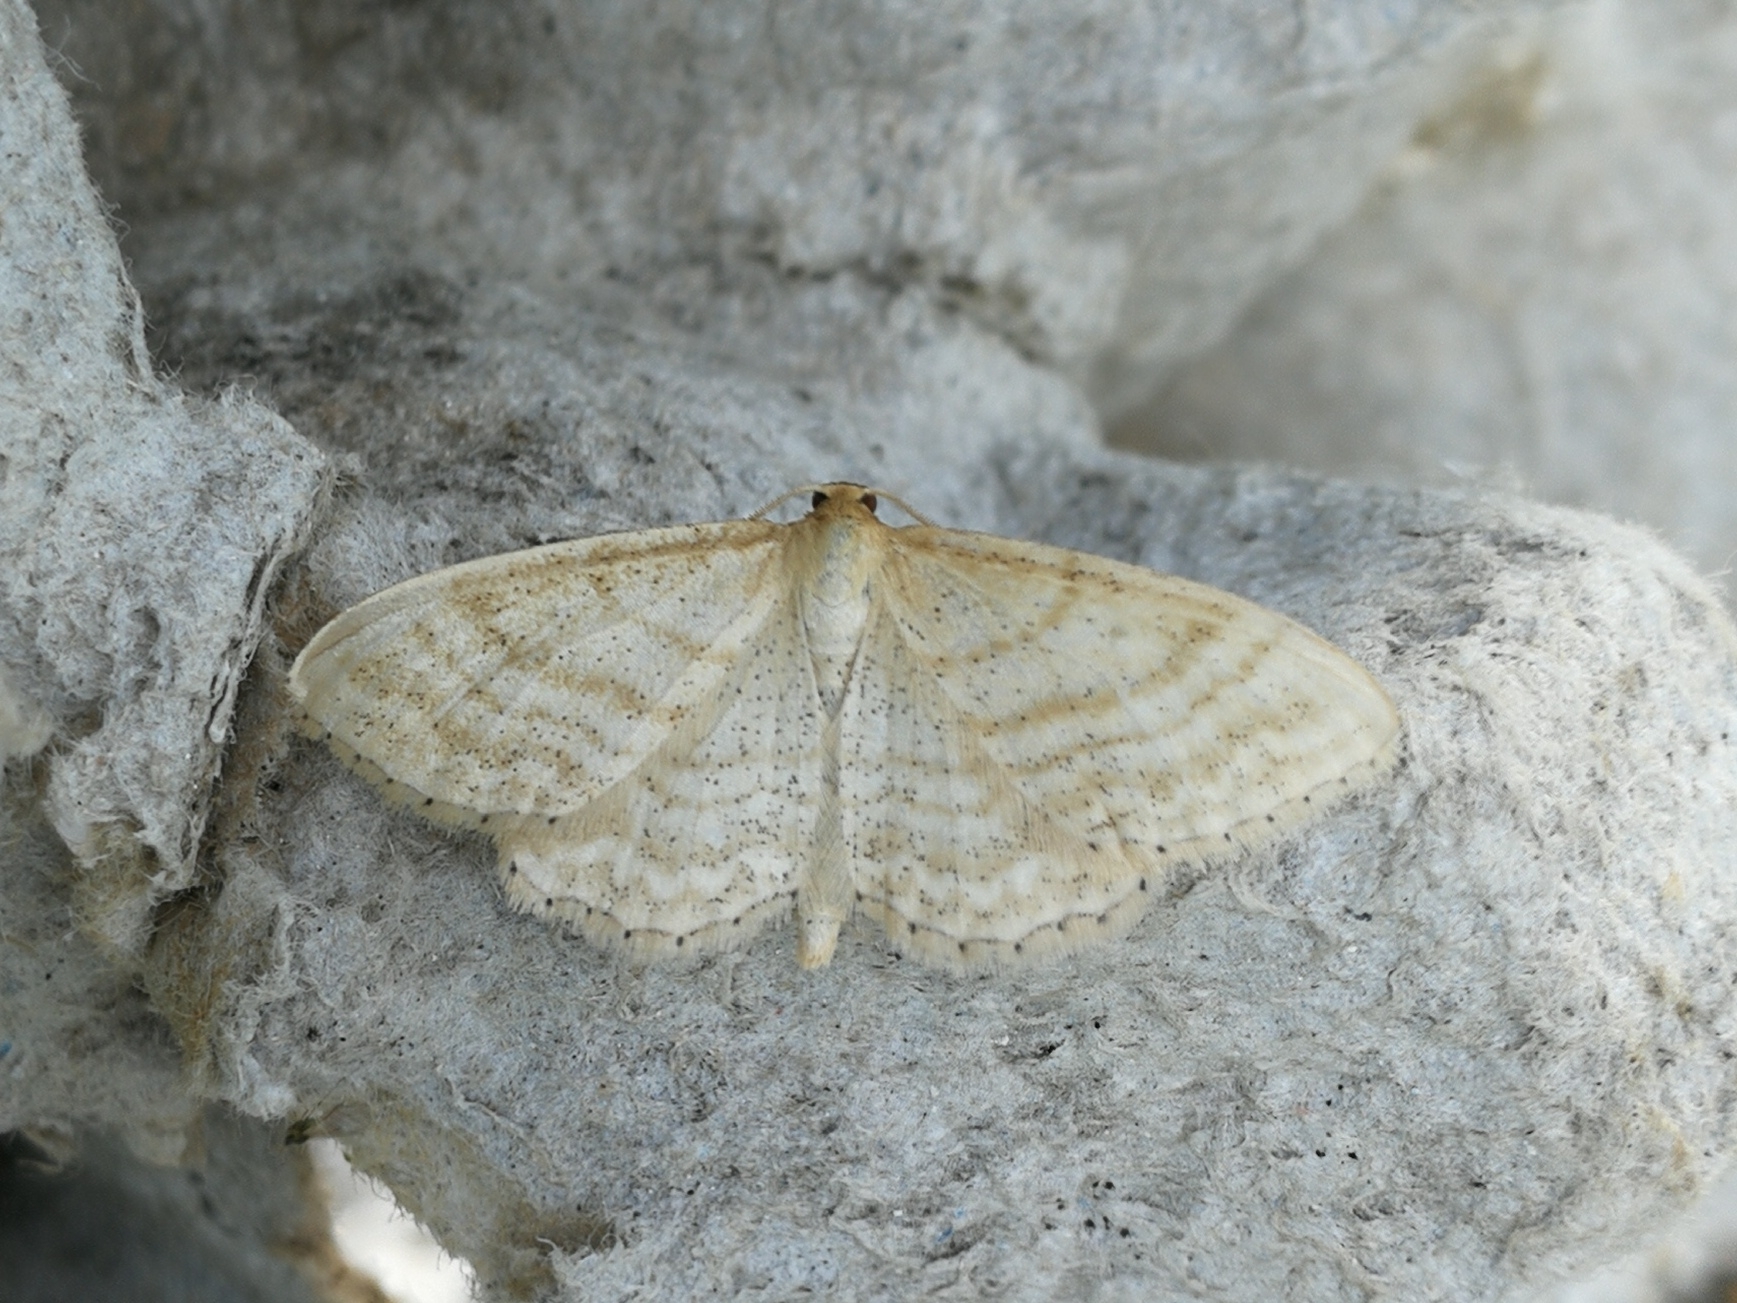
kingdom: Animalia
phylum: Arthropoda
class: Insecta
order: Lepidoptera
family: Geometridae
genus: Idaea
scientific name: Idaea antiquaria
